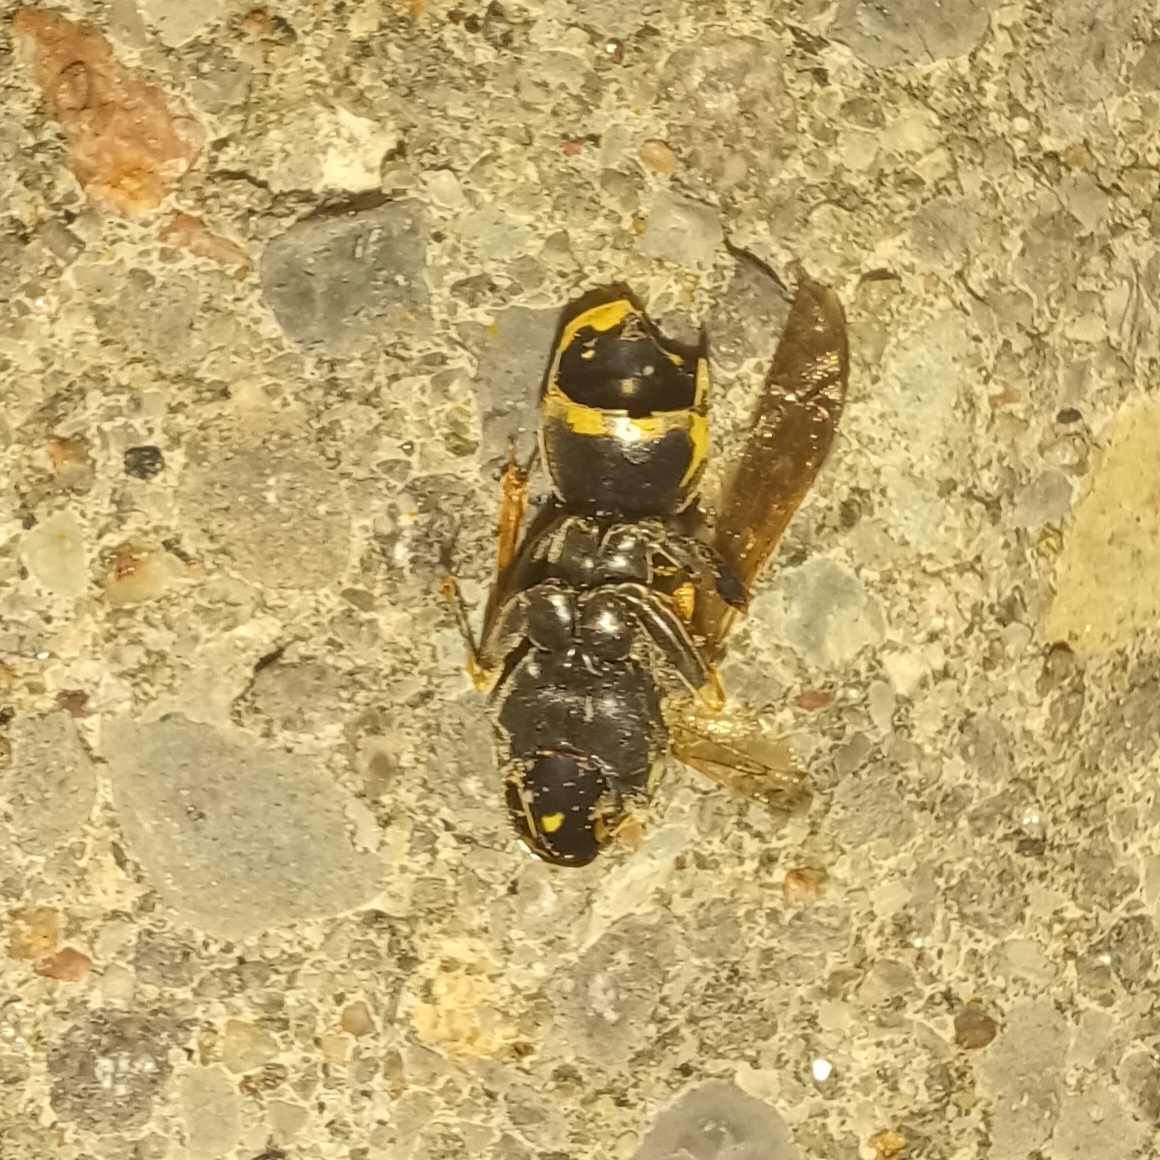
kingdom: Animalia
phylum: Arthropoda
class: Insecta
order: Hymenoptera
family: Eumenidae
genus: Polistes
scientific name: Polistes dominula
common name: Paper wasp
